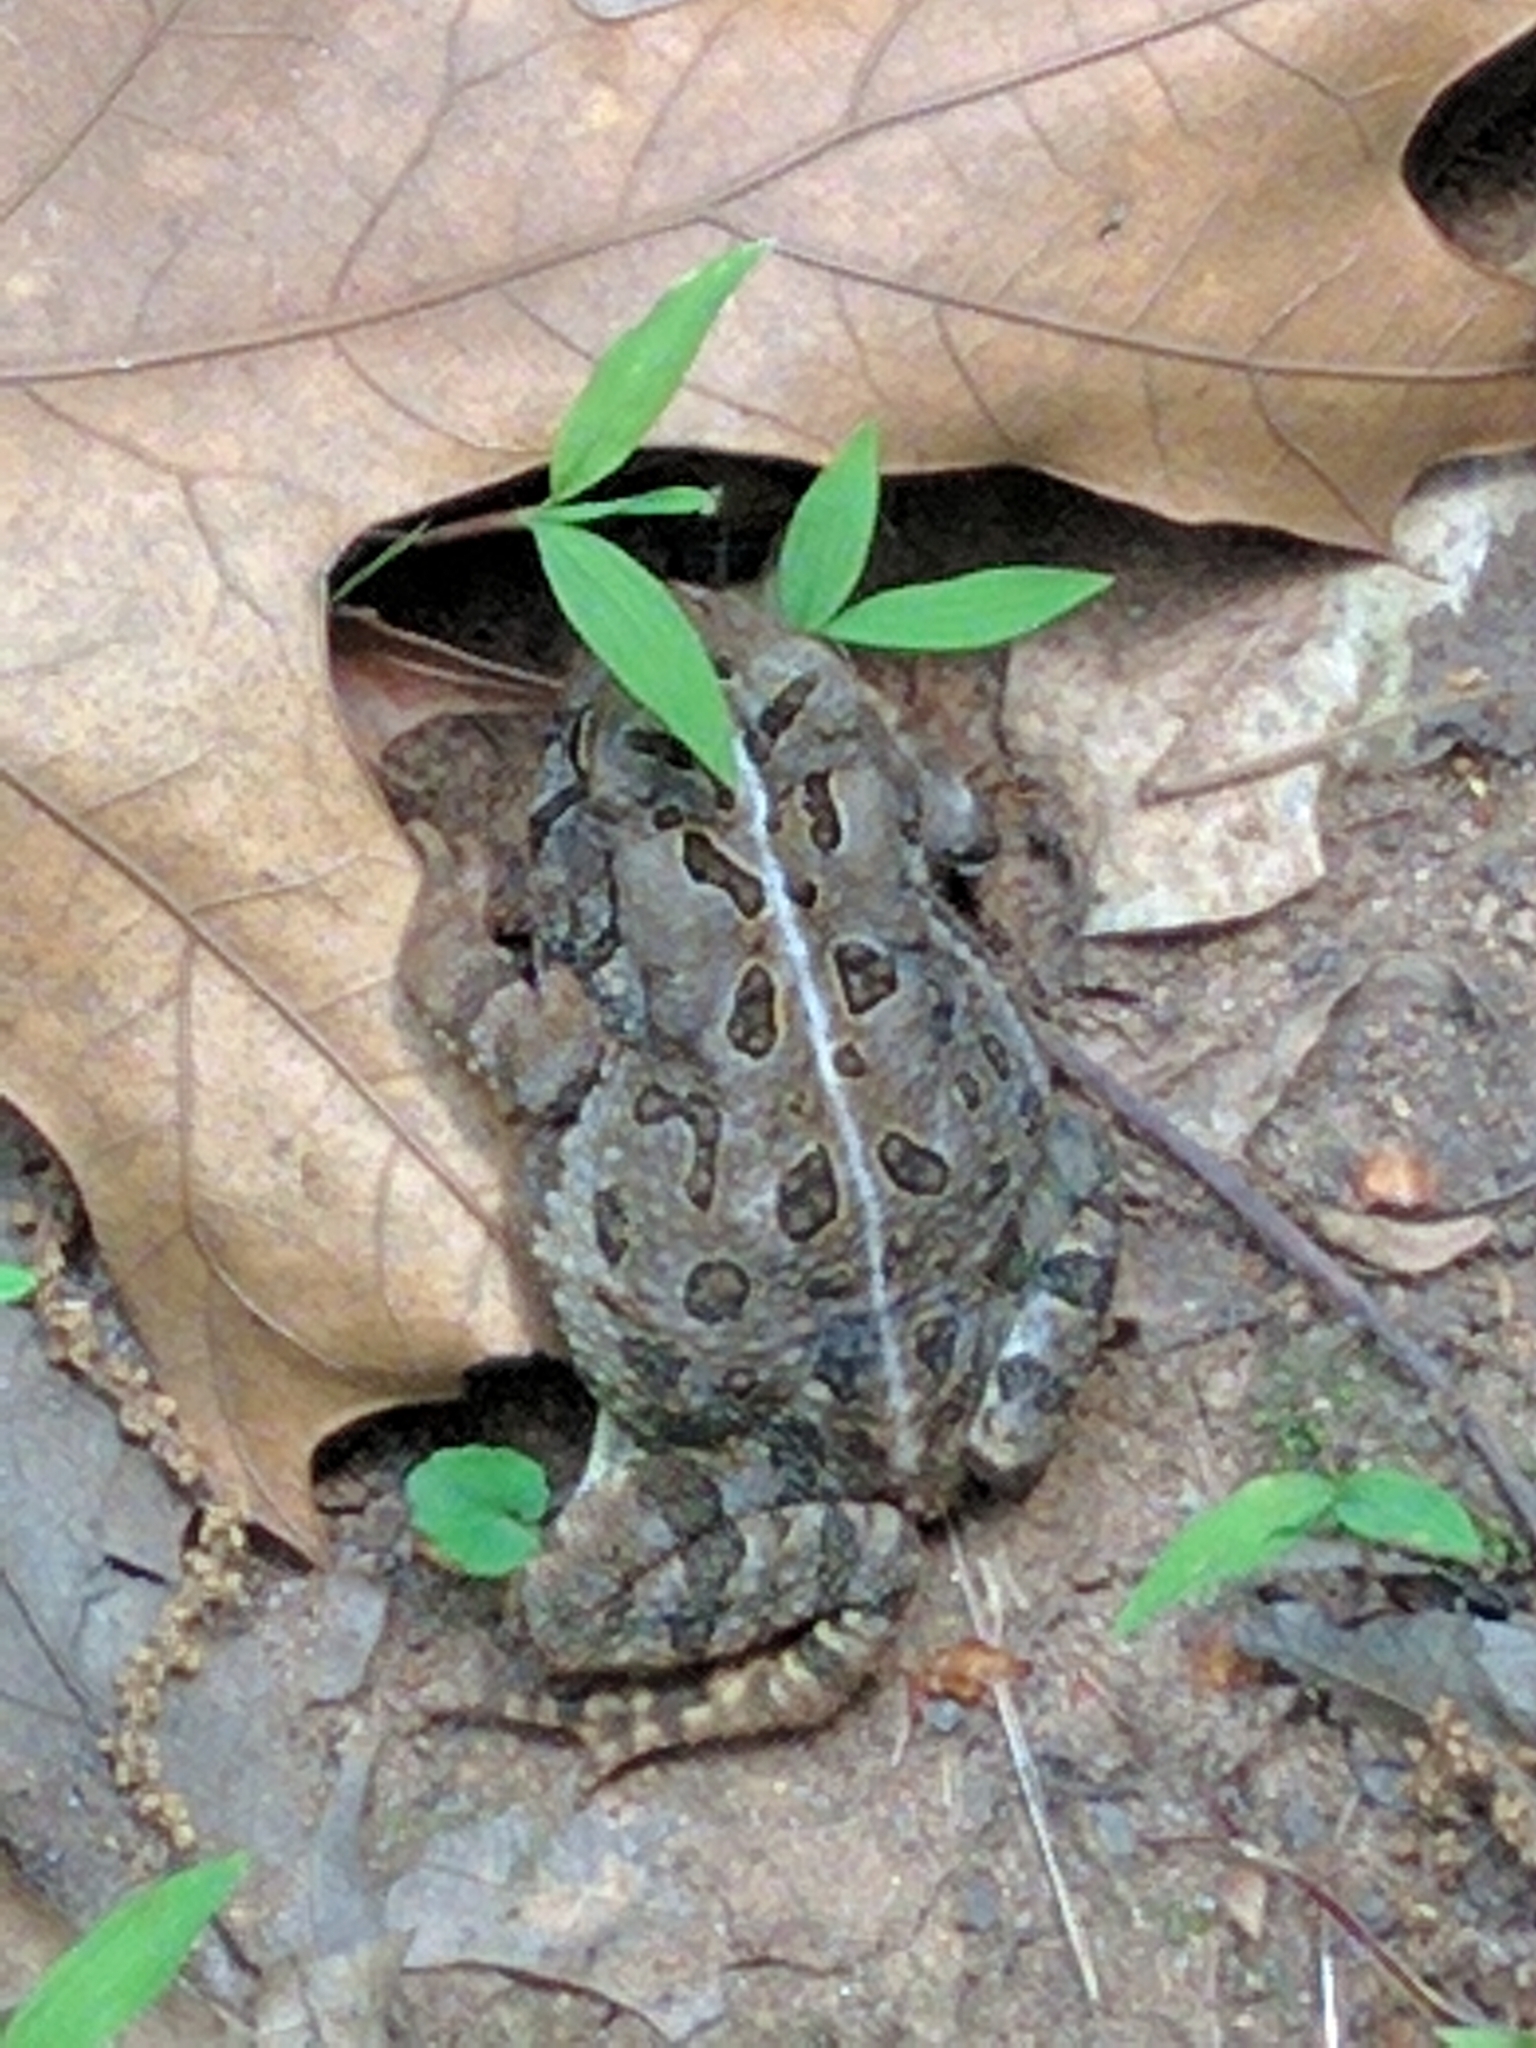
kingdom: Animalia
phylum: Chordata
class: Amphibia
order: Anura
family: Bufonidae
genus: Anaxyrus
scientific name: Anaxyrus fowleri
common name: Fowler's toad
